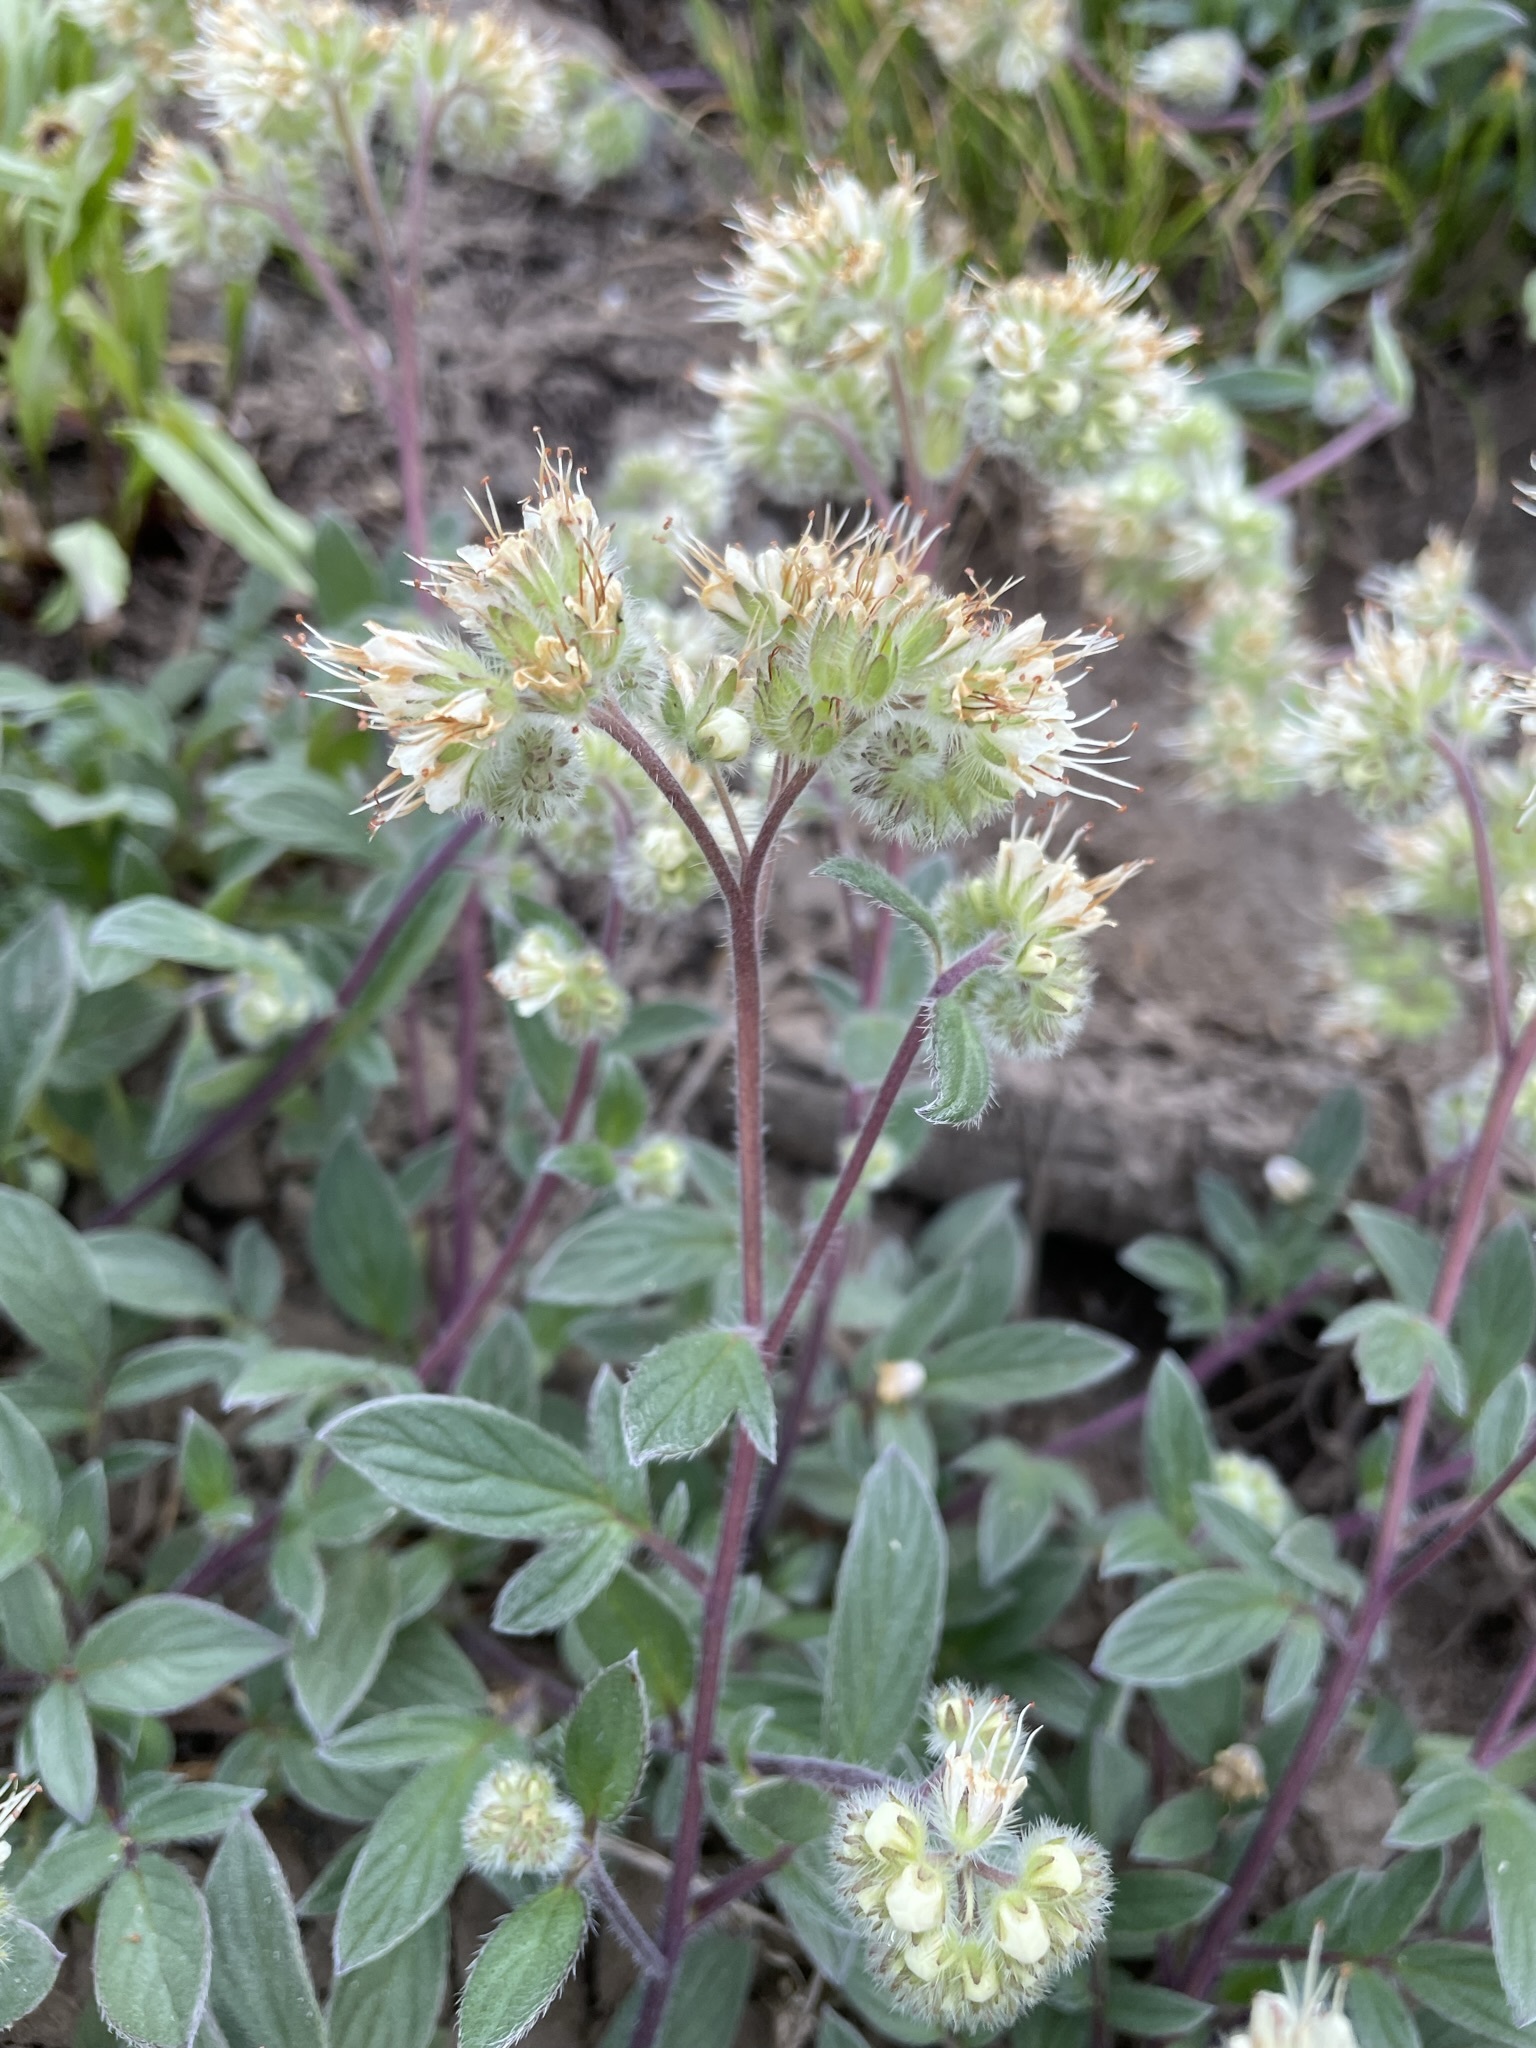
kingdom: Plantae
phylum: Tracheophyta
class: Magnoliopsida
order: Boraginales
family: Hydrophyllaceae
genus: Phacelia
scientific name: Phacelia hastata
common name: Silver-leaved phacelia
